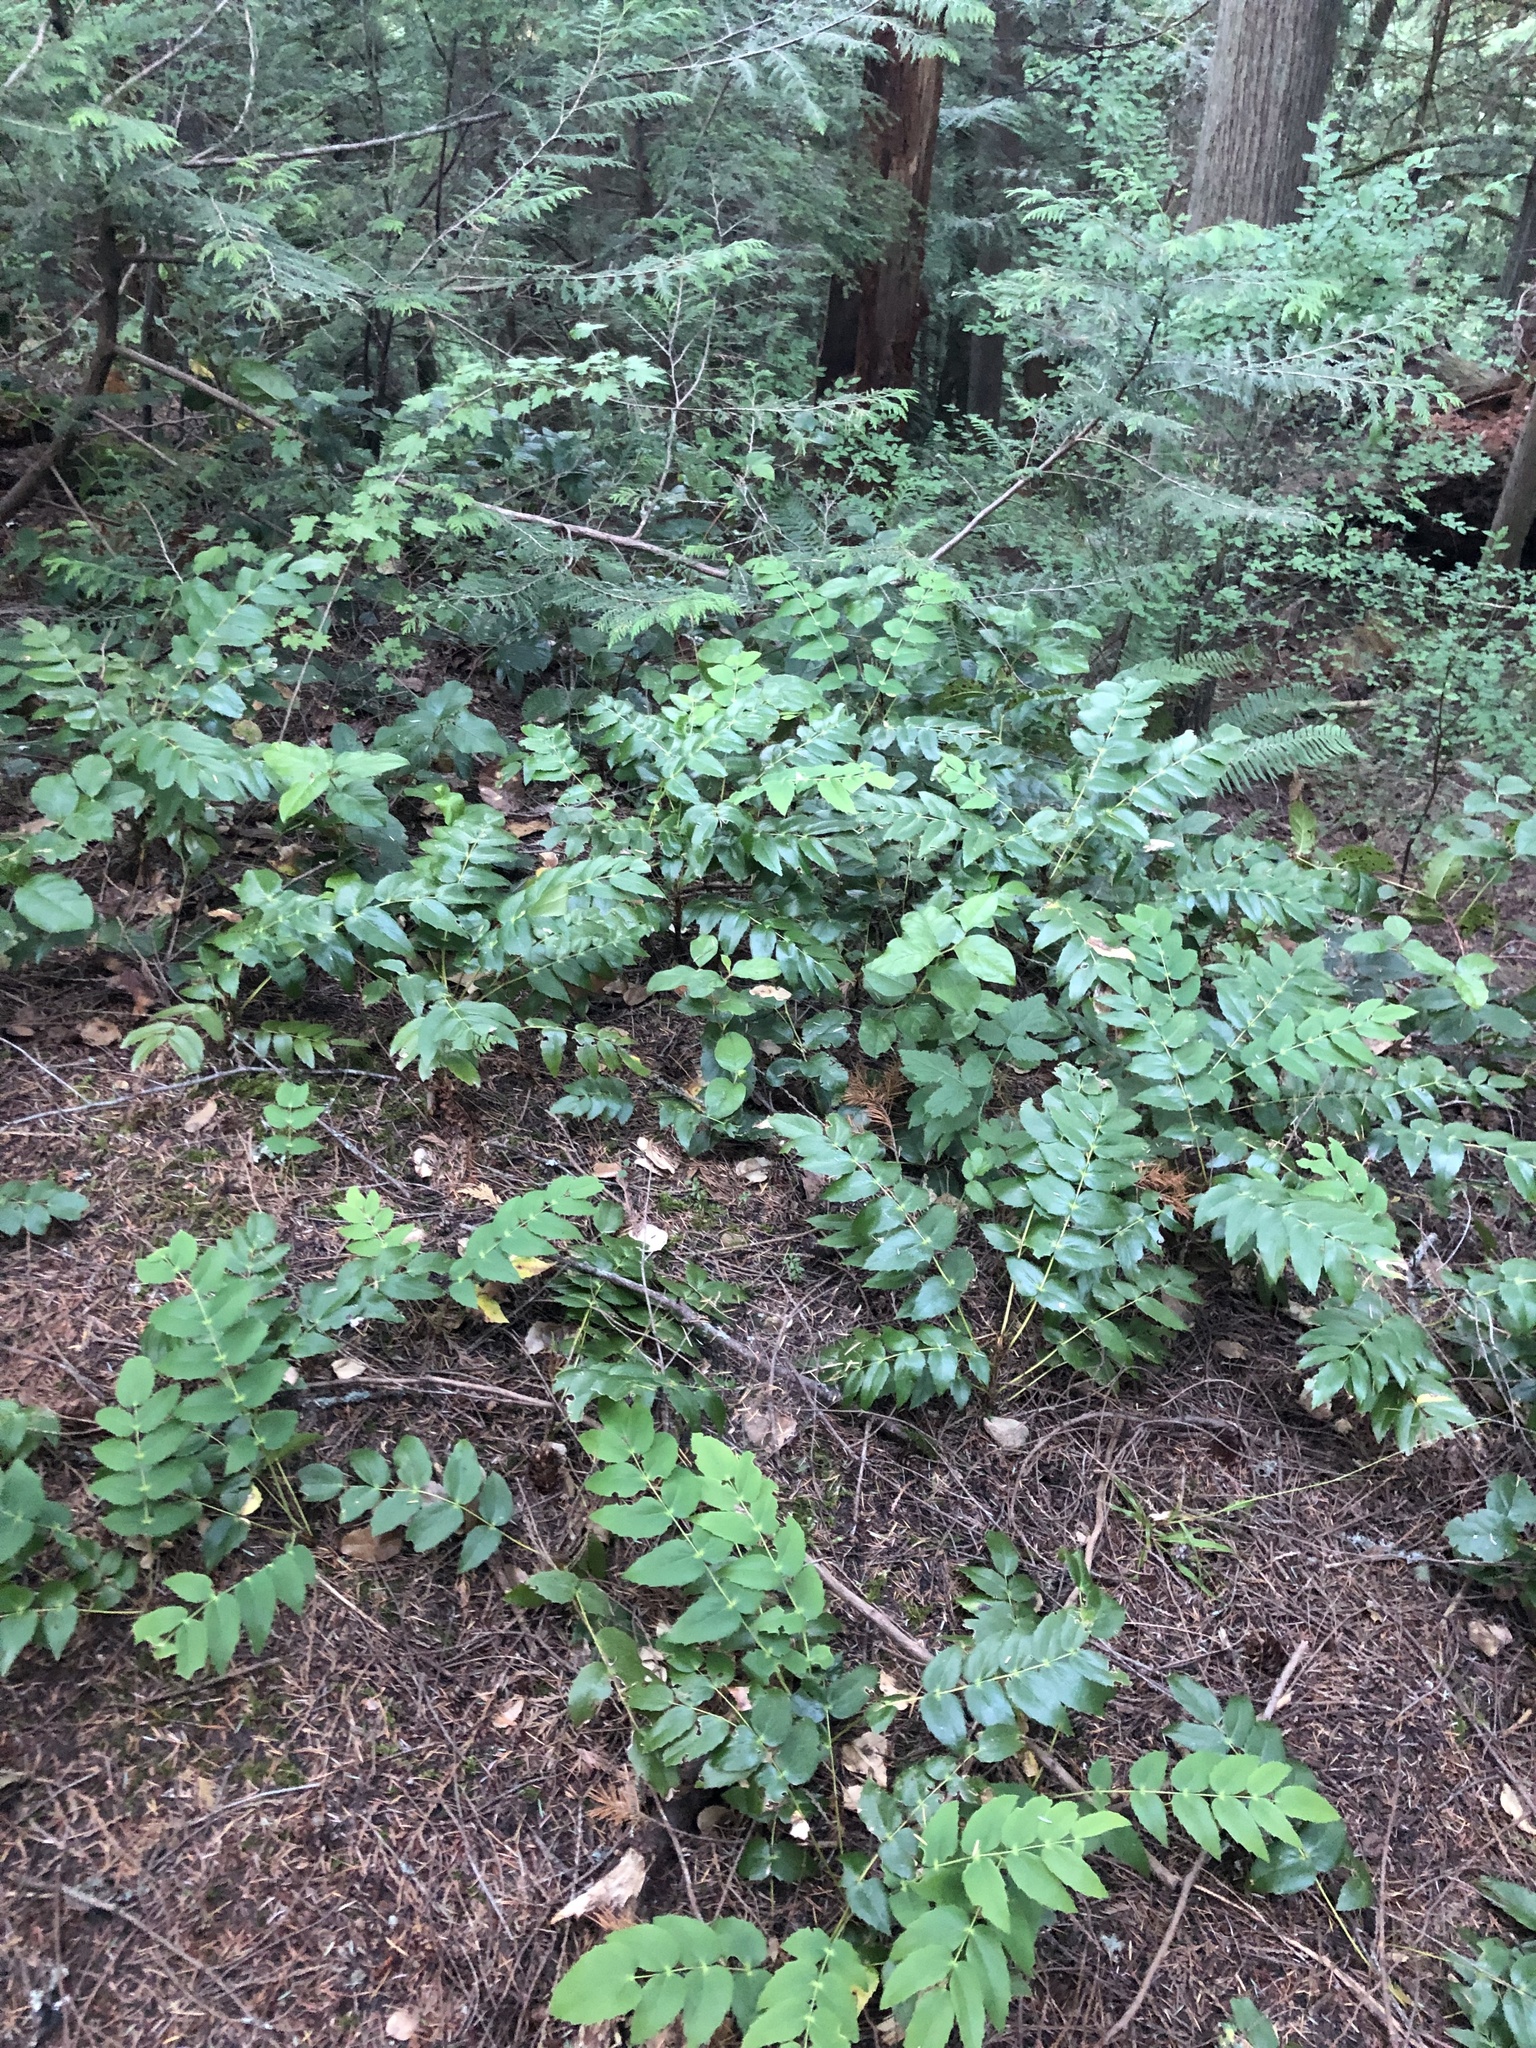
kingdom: Plantae
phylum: Tracheophyta
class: Magnoliopsida
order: Ranunculales
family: Berberidaceae
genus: Mahonia
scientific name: Mahonia nervosa
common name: Cascade oregon-grape
